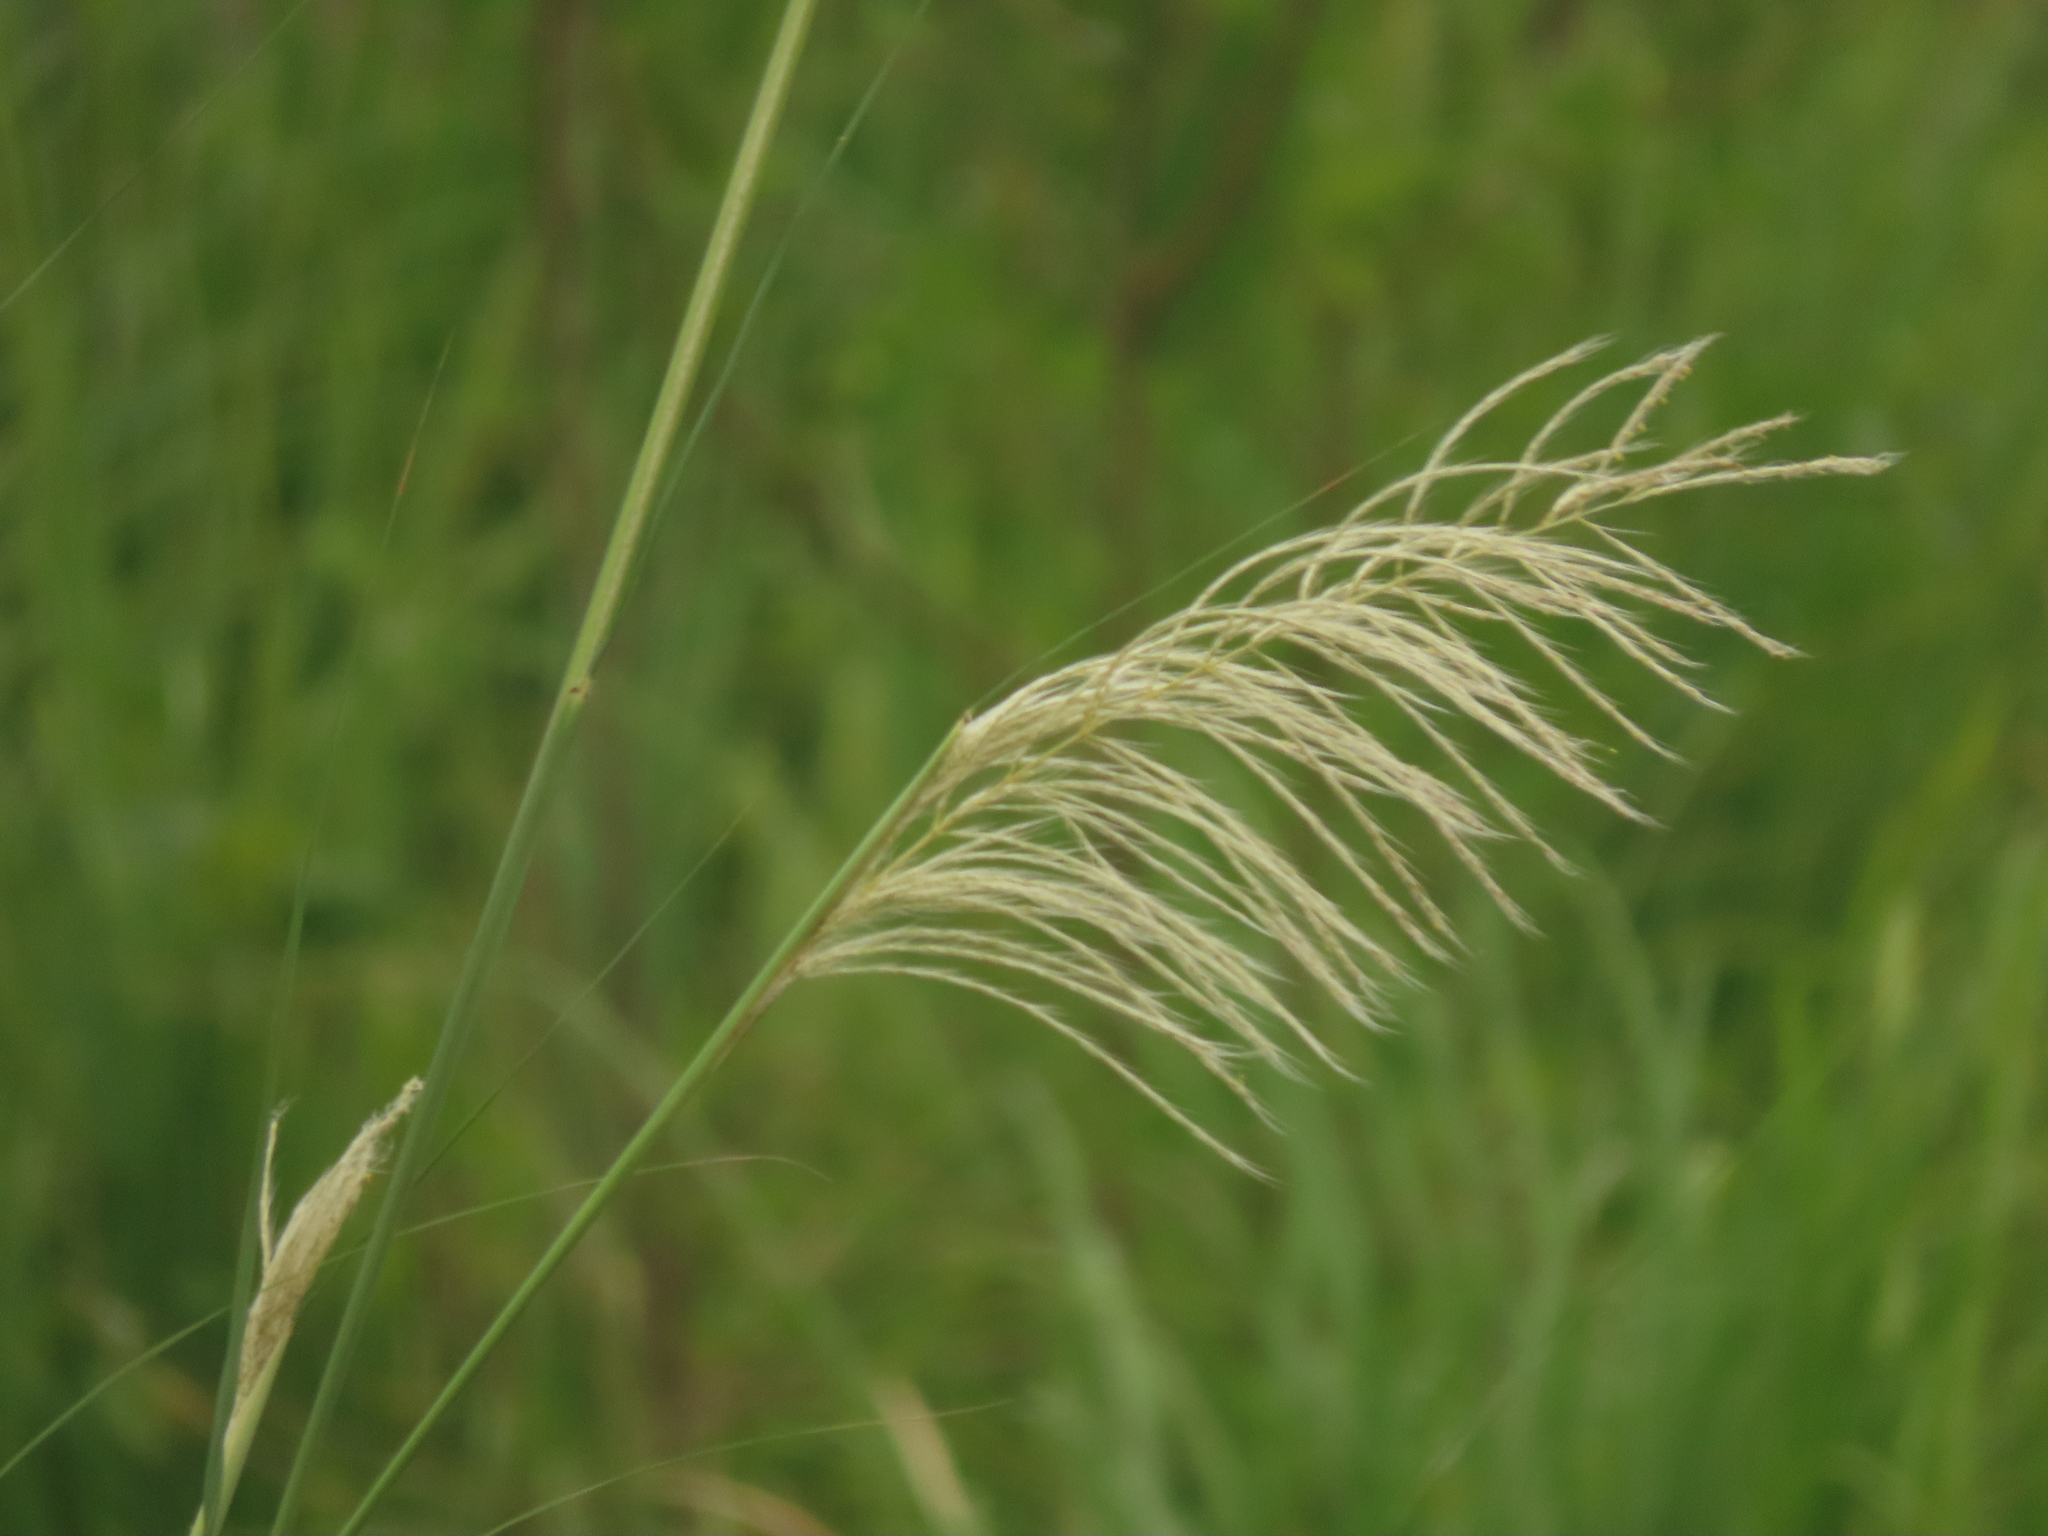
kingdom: Plantae
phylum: Tracheophyta
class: Liliopsida
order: Poales
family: Poaceae
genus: Saccharum
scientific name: Saccharum spontaneum
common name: Wild sugarcane
